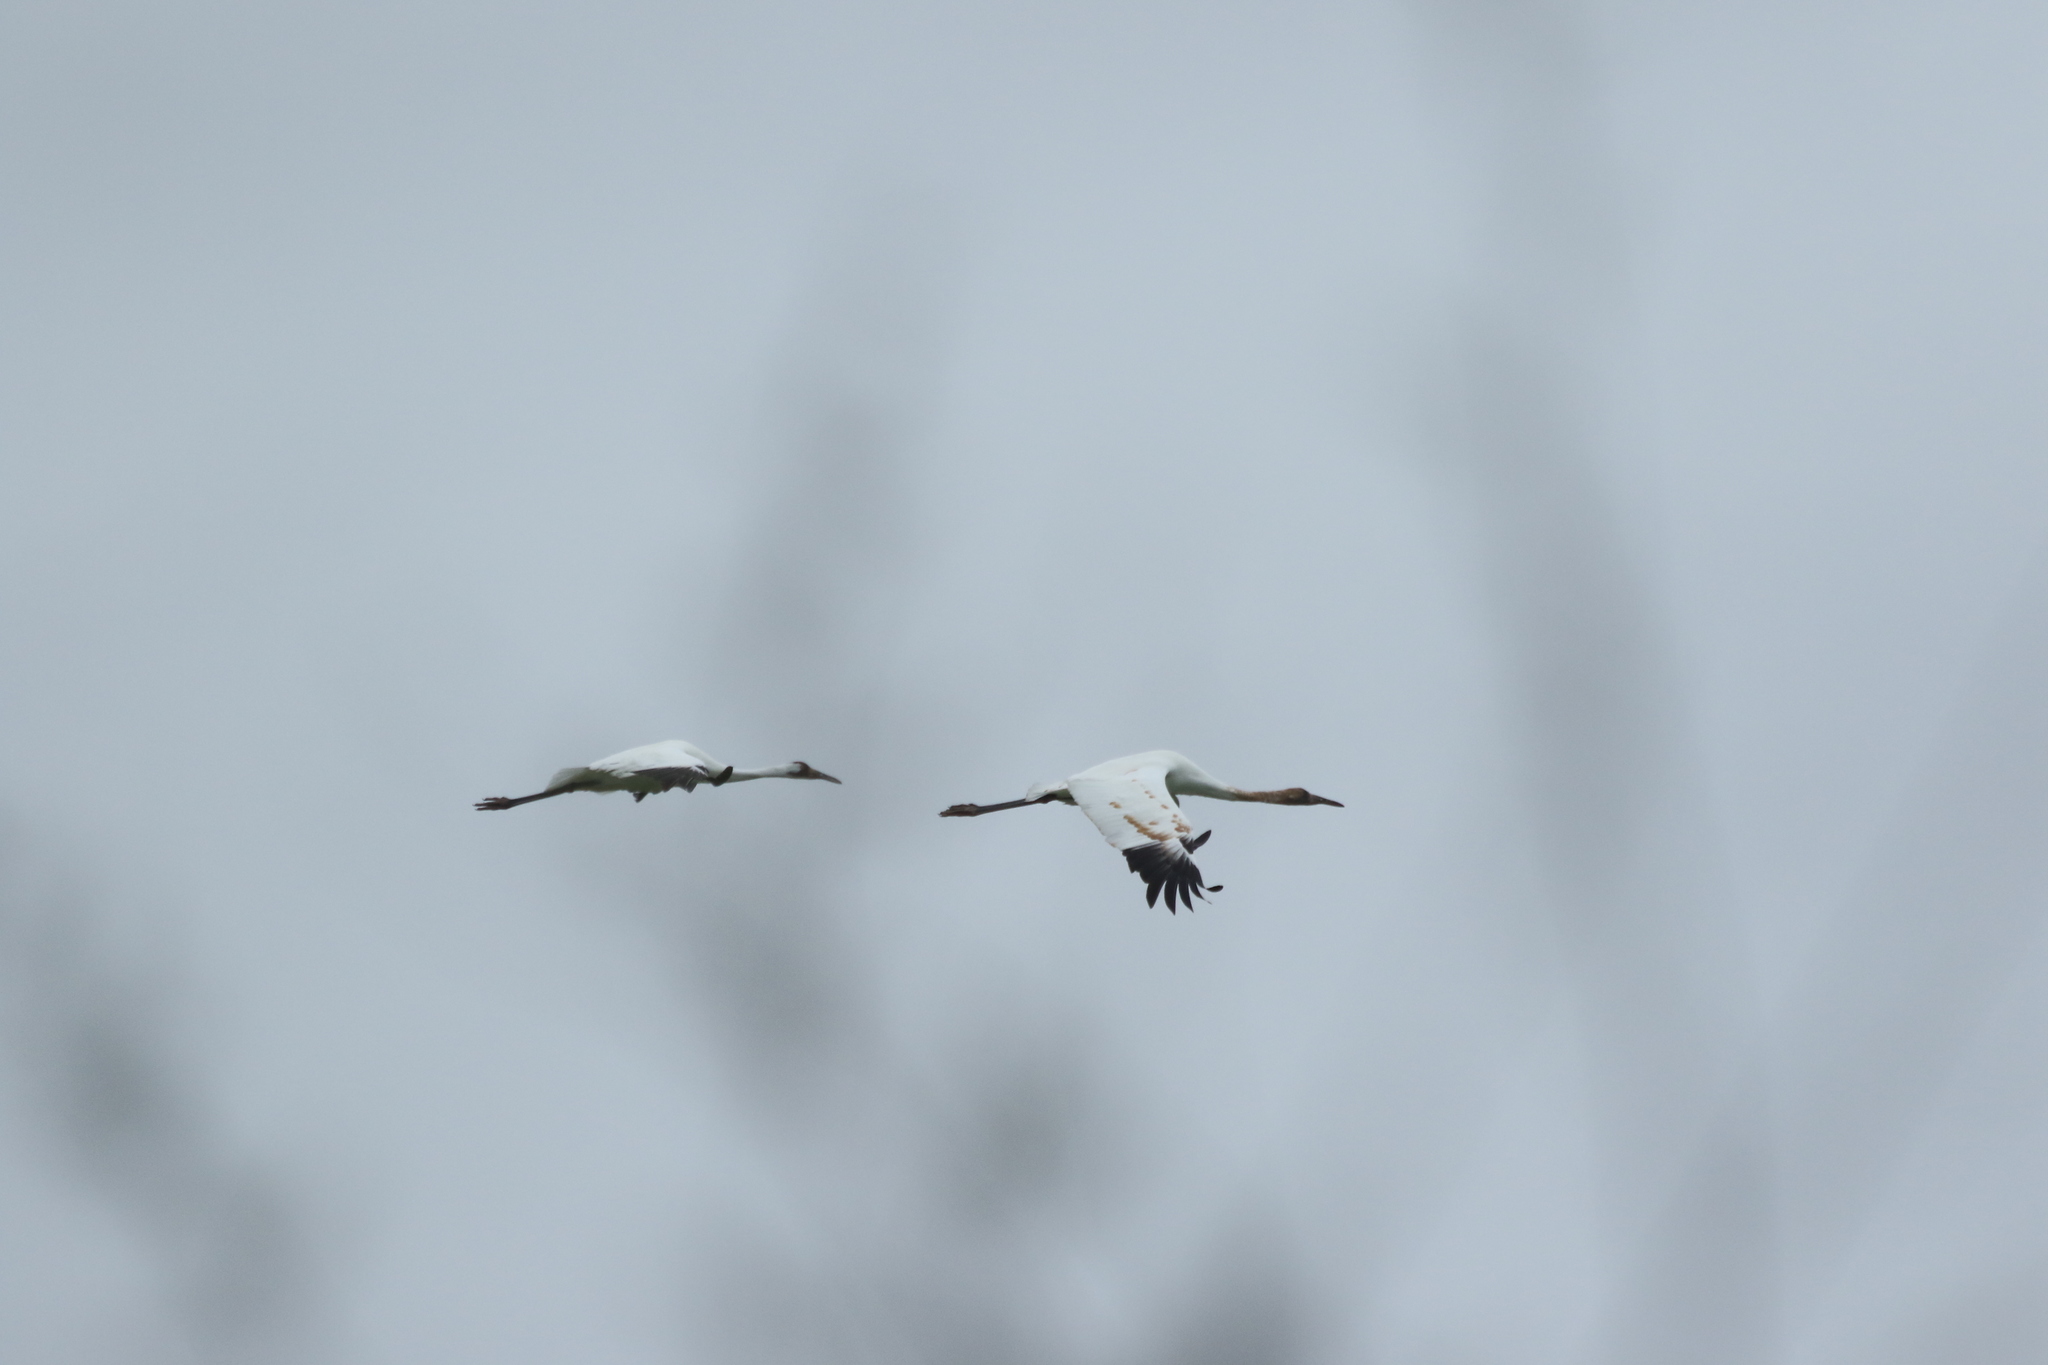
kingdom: Animalia
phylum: Chordata
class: Aves
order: Gruiformes
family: Gruidae
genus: Grus
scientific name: Grus americana
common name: Whooping crane
